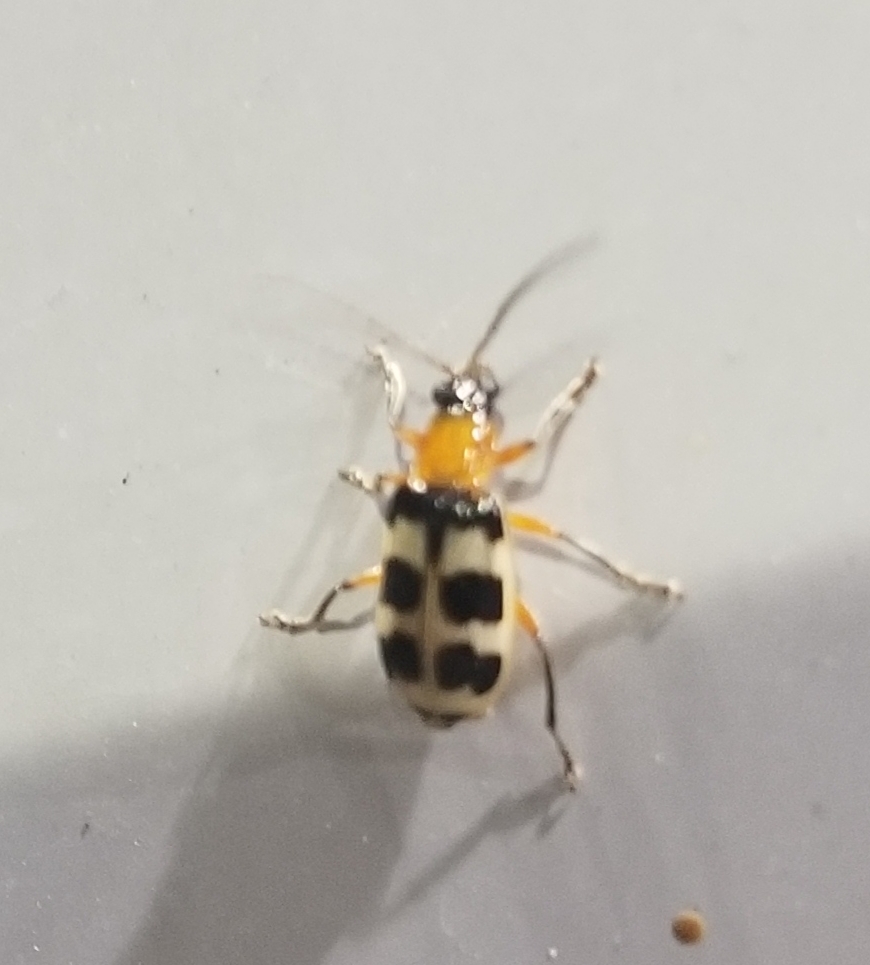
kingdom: Animalia
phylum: Arthropoda
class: Insecta
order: Coleoptera
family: Chrysomelidae
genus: Paranapiacaba
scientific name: Paranapiacaba tricincta
